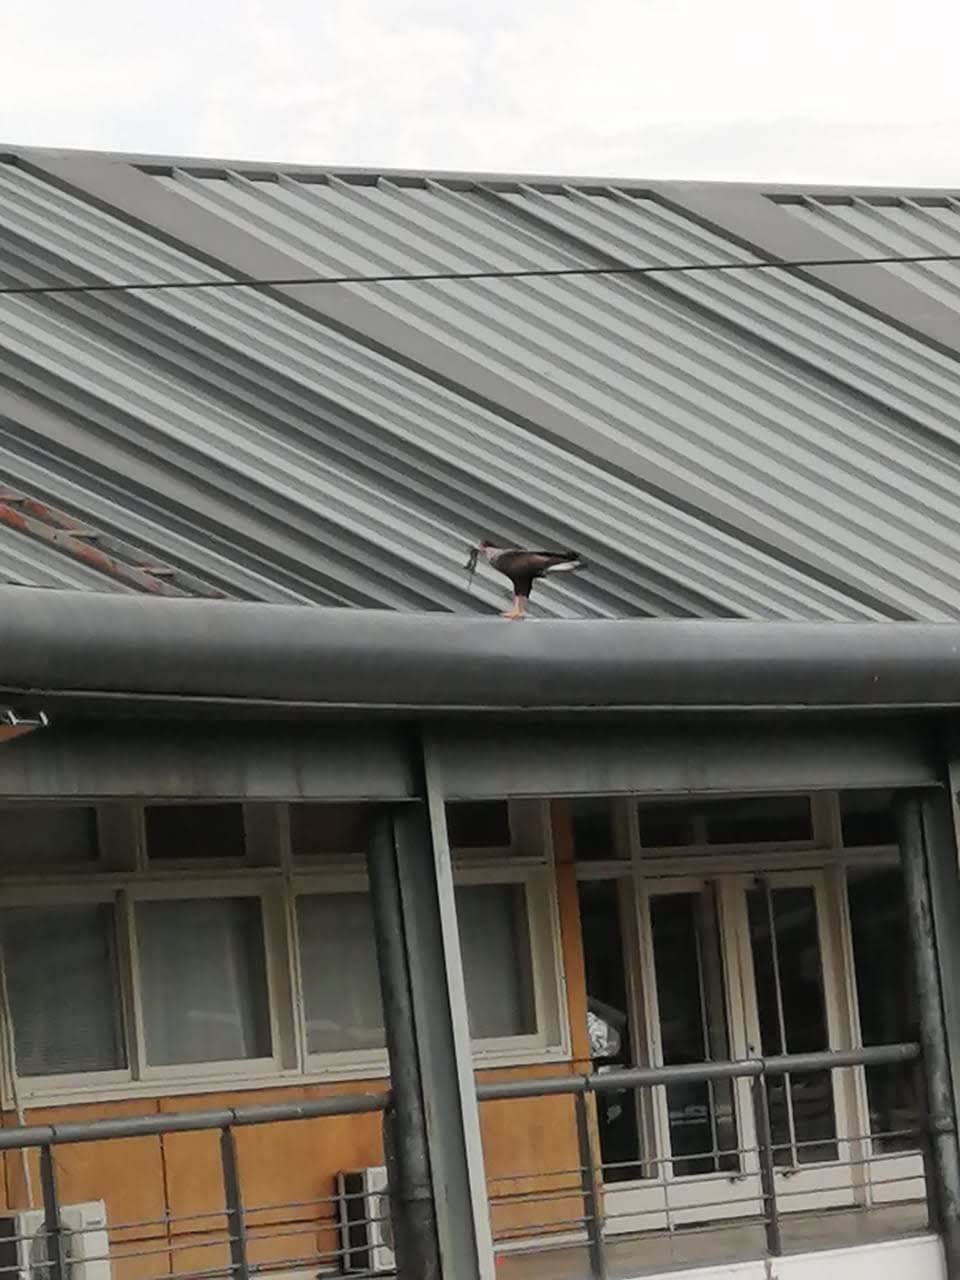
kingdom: Animalia
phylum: Chordata
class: Aves
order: Falconiformes
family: Falconidae
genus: Caracara
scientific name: Caracara plancus
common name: Southern caracara
